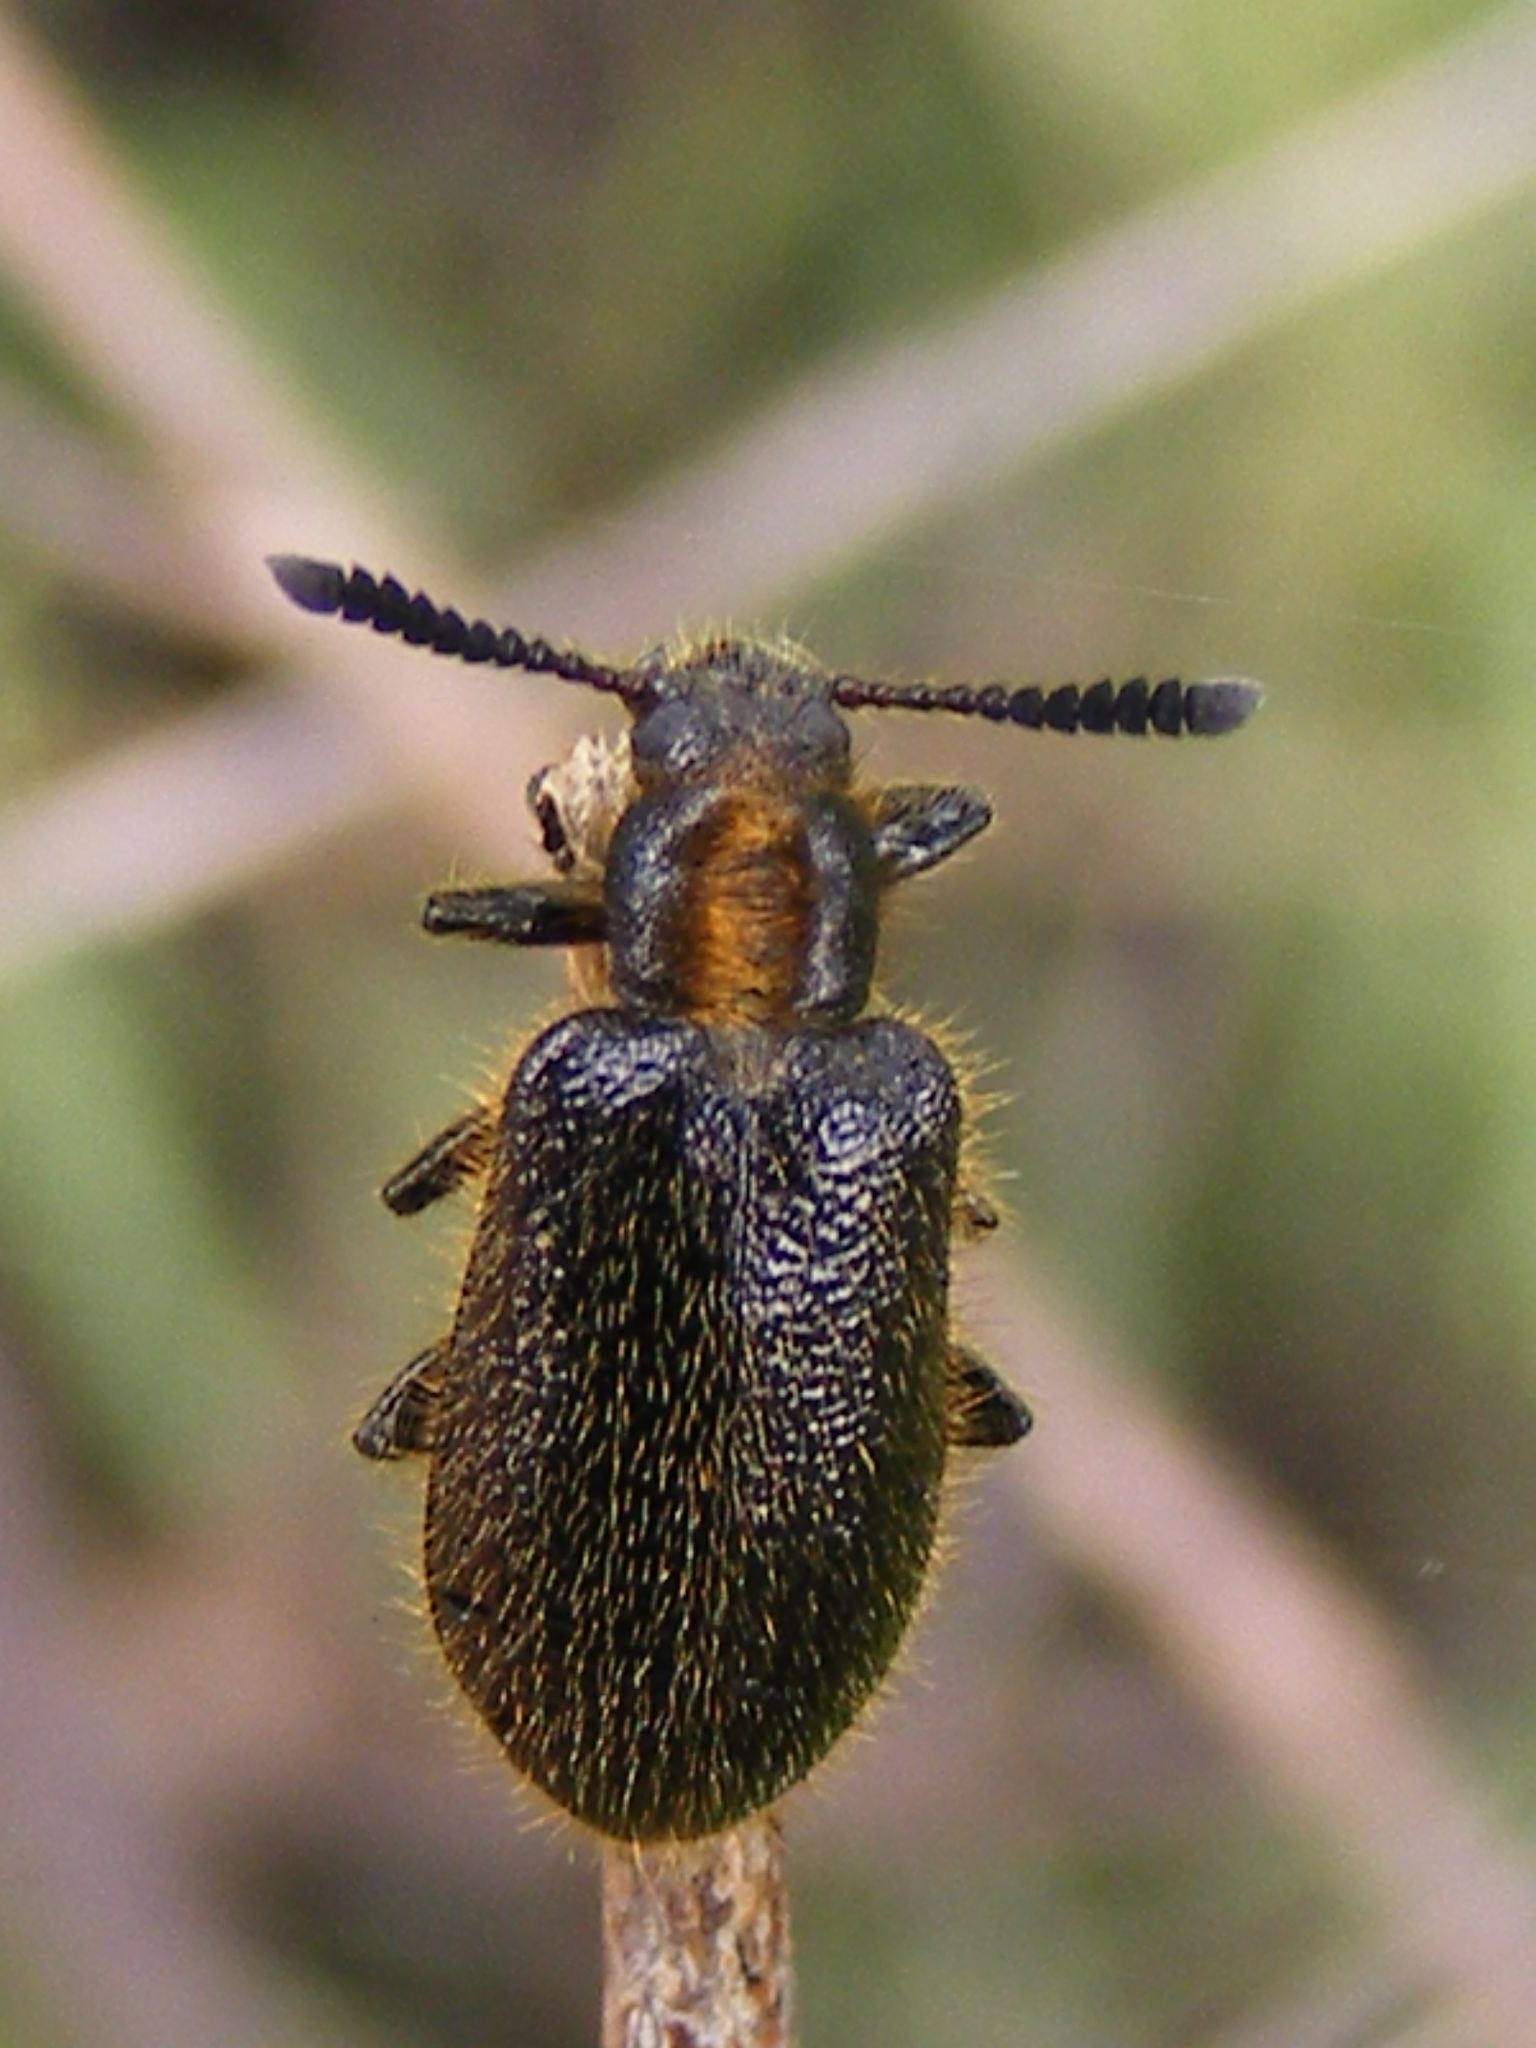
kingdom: Animalia
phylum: Arthropoda
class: Insecta
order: Coleoptera
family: Tenebrionidae
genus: Lopholagria
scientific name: Lopholagria
